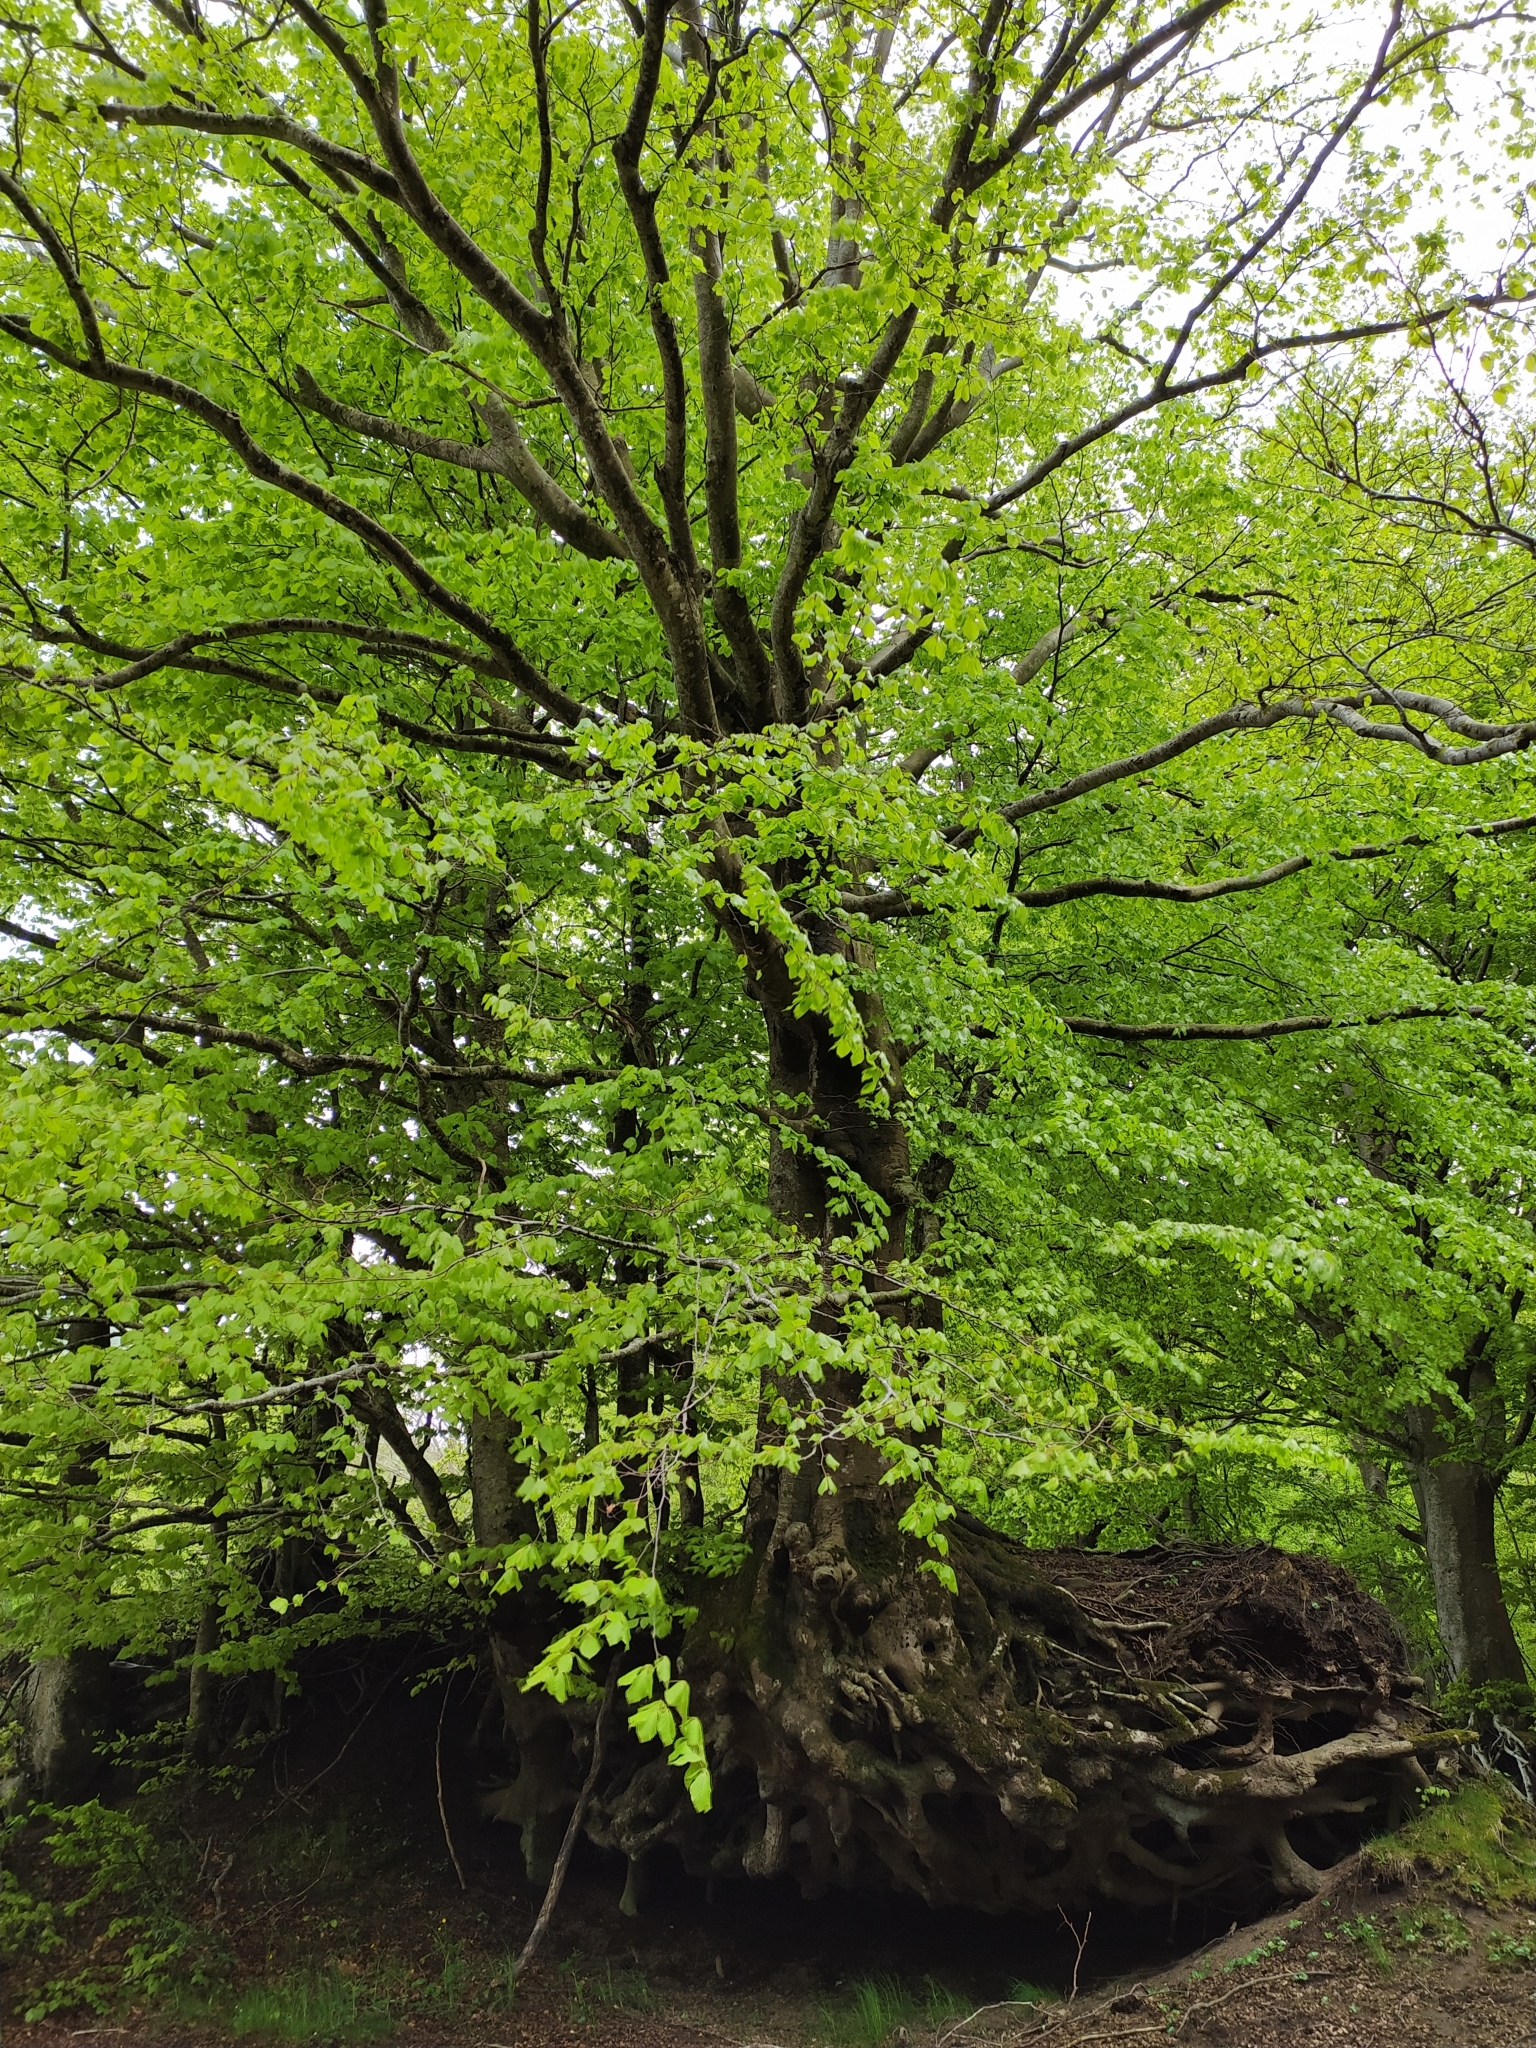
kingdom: Plantae
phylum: Tracheophyta
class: Magnoliopsida
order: Fagales
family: Fagaceae
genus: Fagus
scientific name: Fagus sylvatica
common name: Beech
